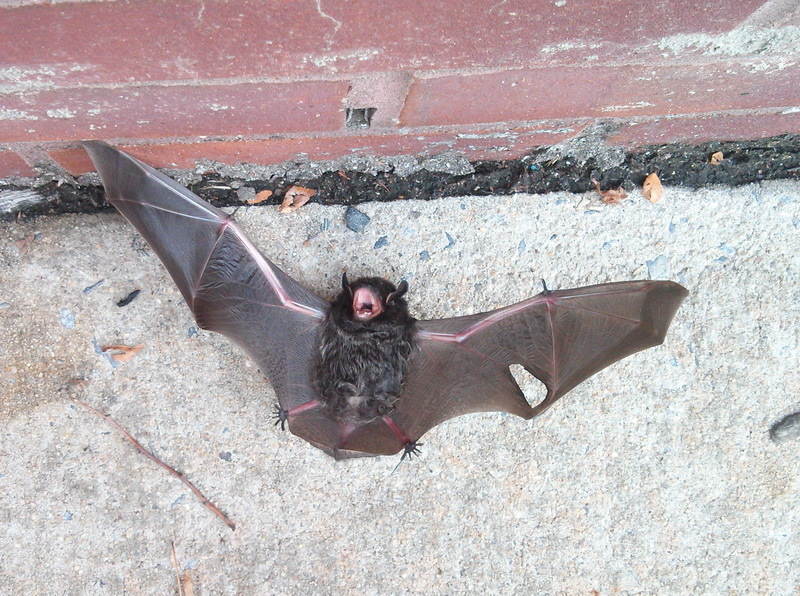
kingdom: Animalia
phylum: Chordata
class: Mammalia
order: Chiroptera
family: Vespertilionidae
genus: Lasionycteris
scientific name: Lasionycteris noctivagans
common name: Silver-haired bat
